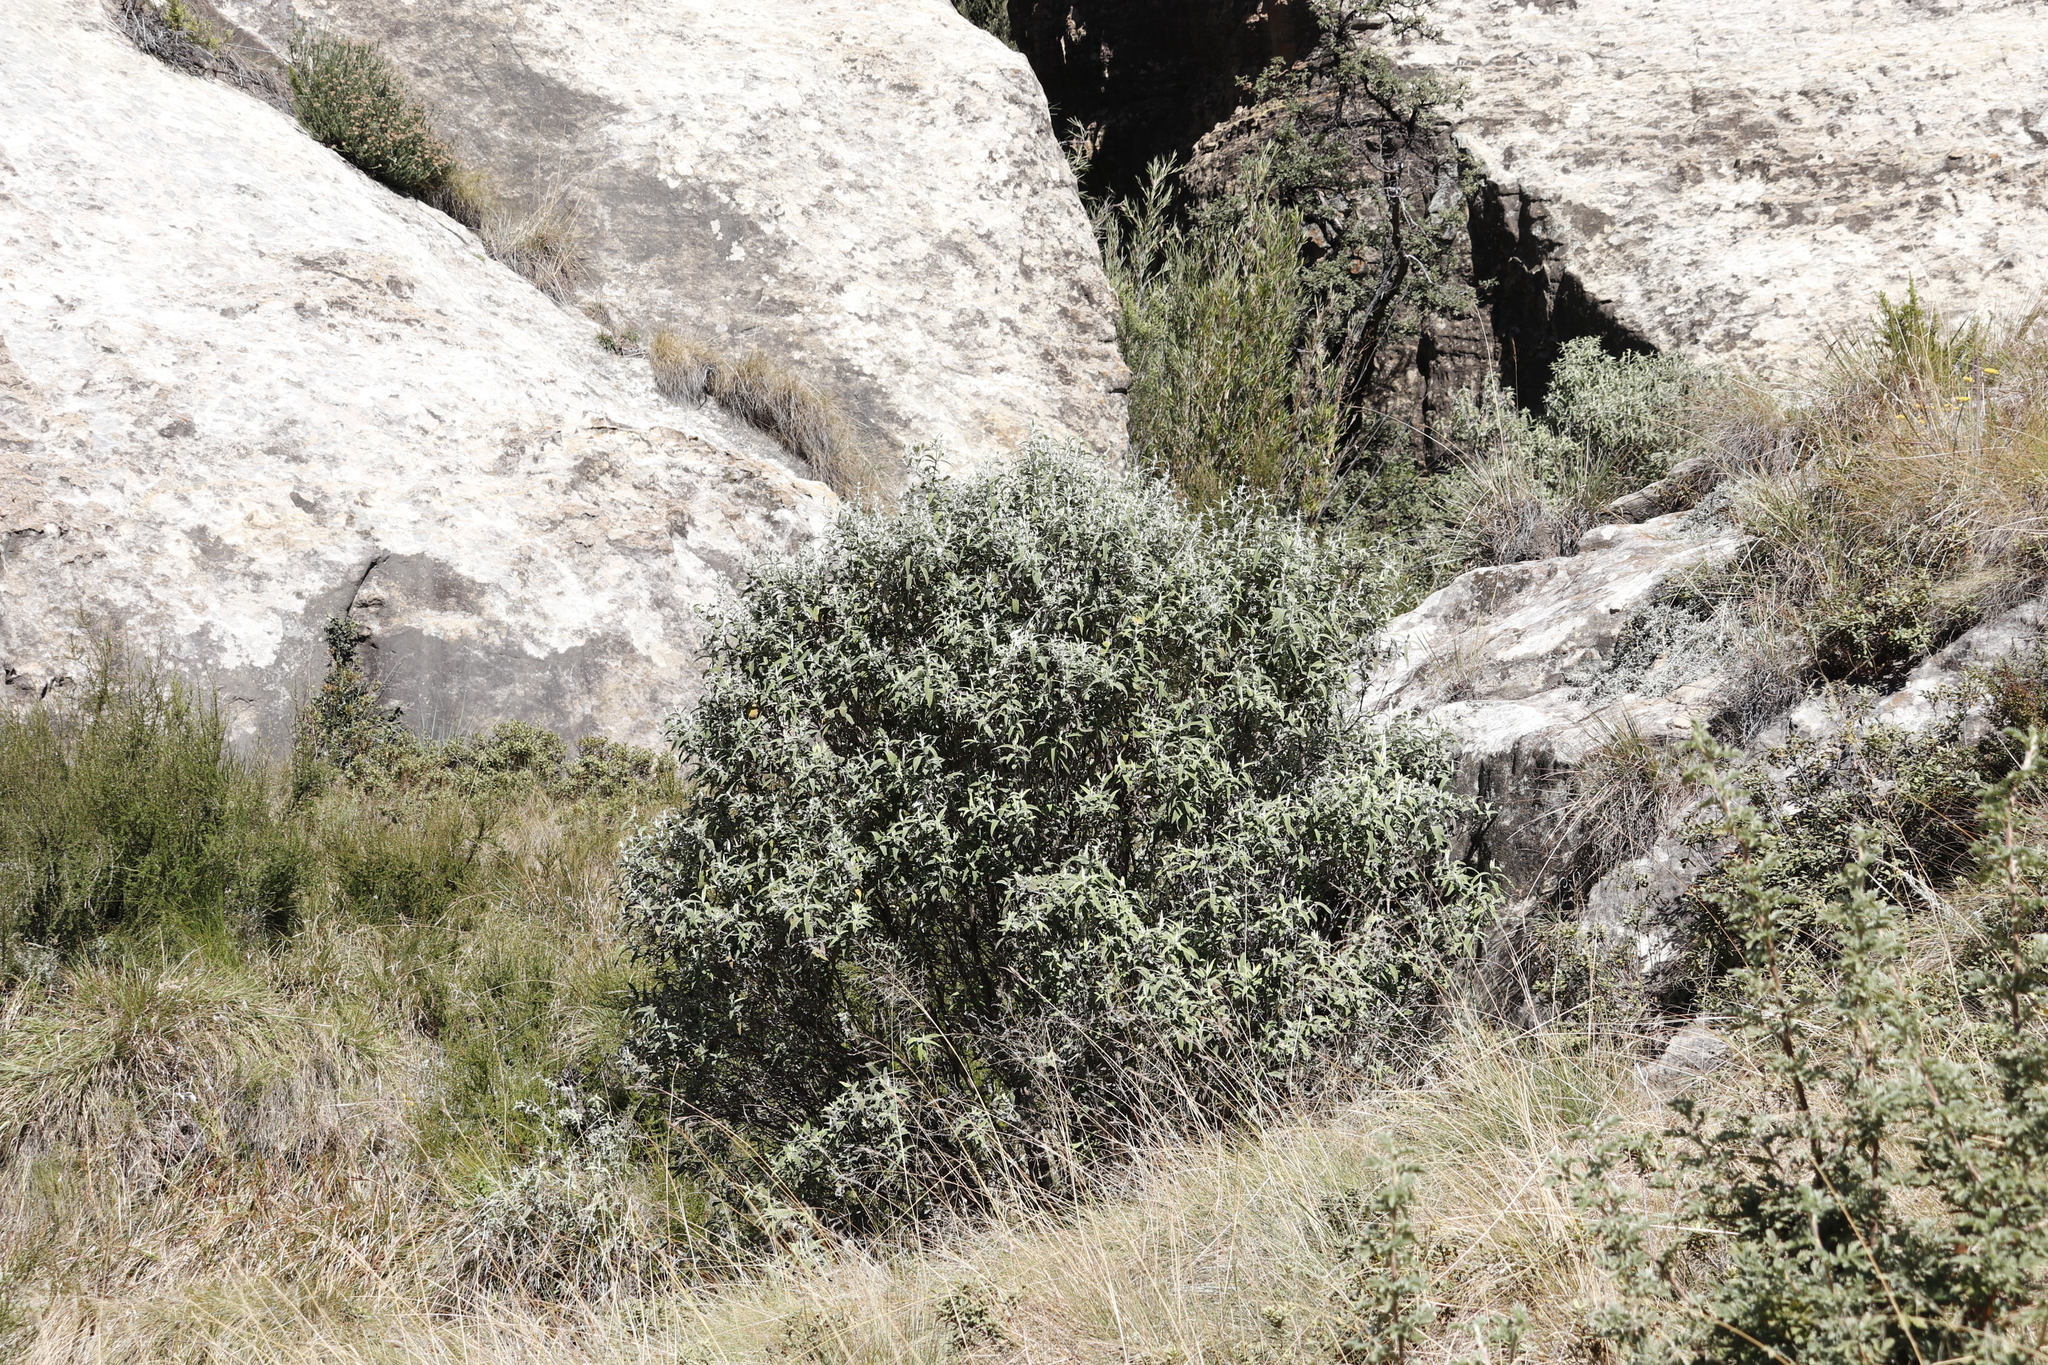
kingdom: Plantae
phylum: Tracheophyta
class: Magnoliopsida
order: Lamiales
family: Scrophulariaceae
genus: Buddleja
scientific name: Buddleja loricata
